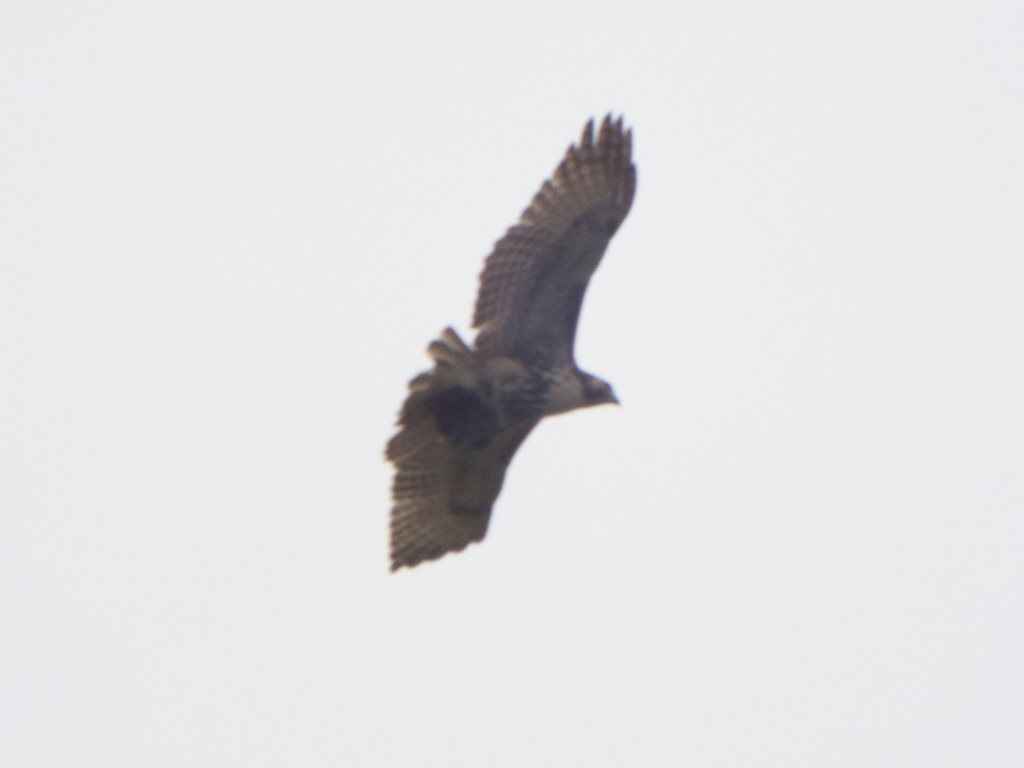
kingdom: Animalia
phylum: Chordata
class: Aves
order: Accipitriformes
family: Accipitridae
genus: Buteo
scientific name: Buteo jamaicensis
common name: Red-tailed hawk
